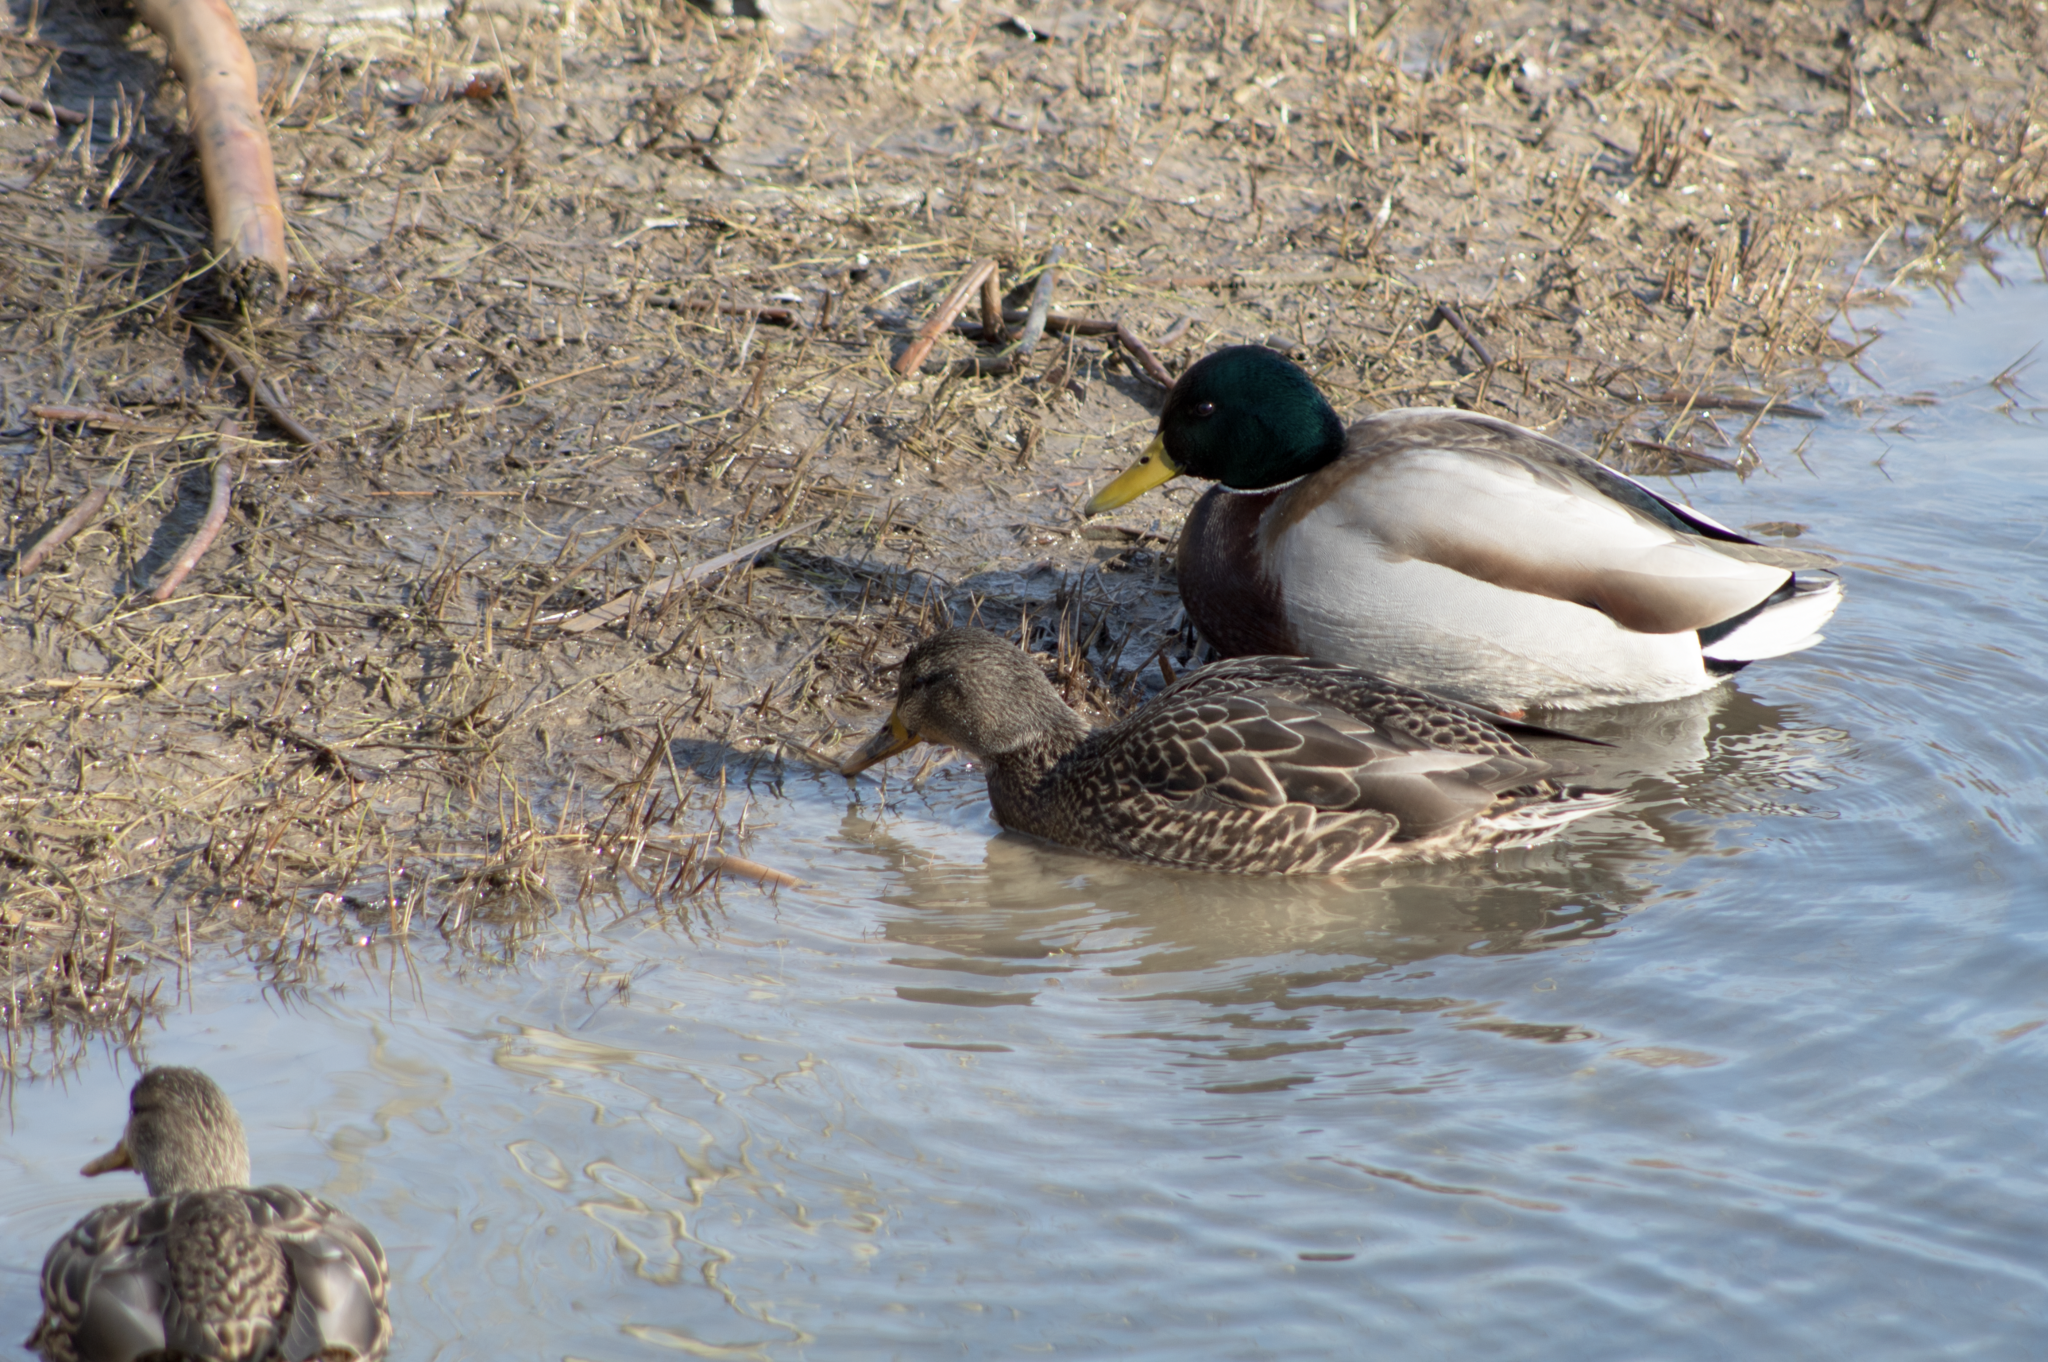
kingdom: Animalia
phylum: Chordata
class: Aves
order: Anseriformes
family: Anatidae
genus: Anas
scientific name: Anas platyrhynchos
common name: Mallard
